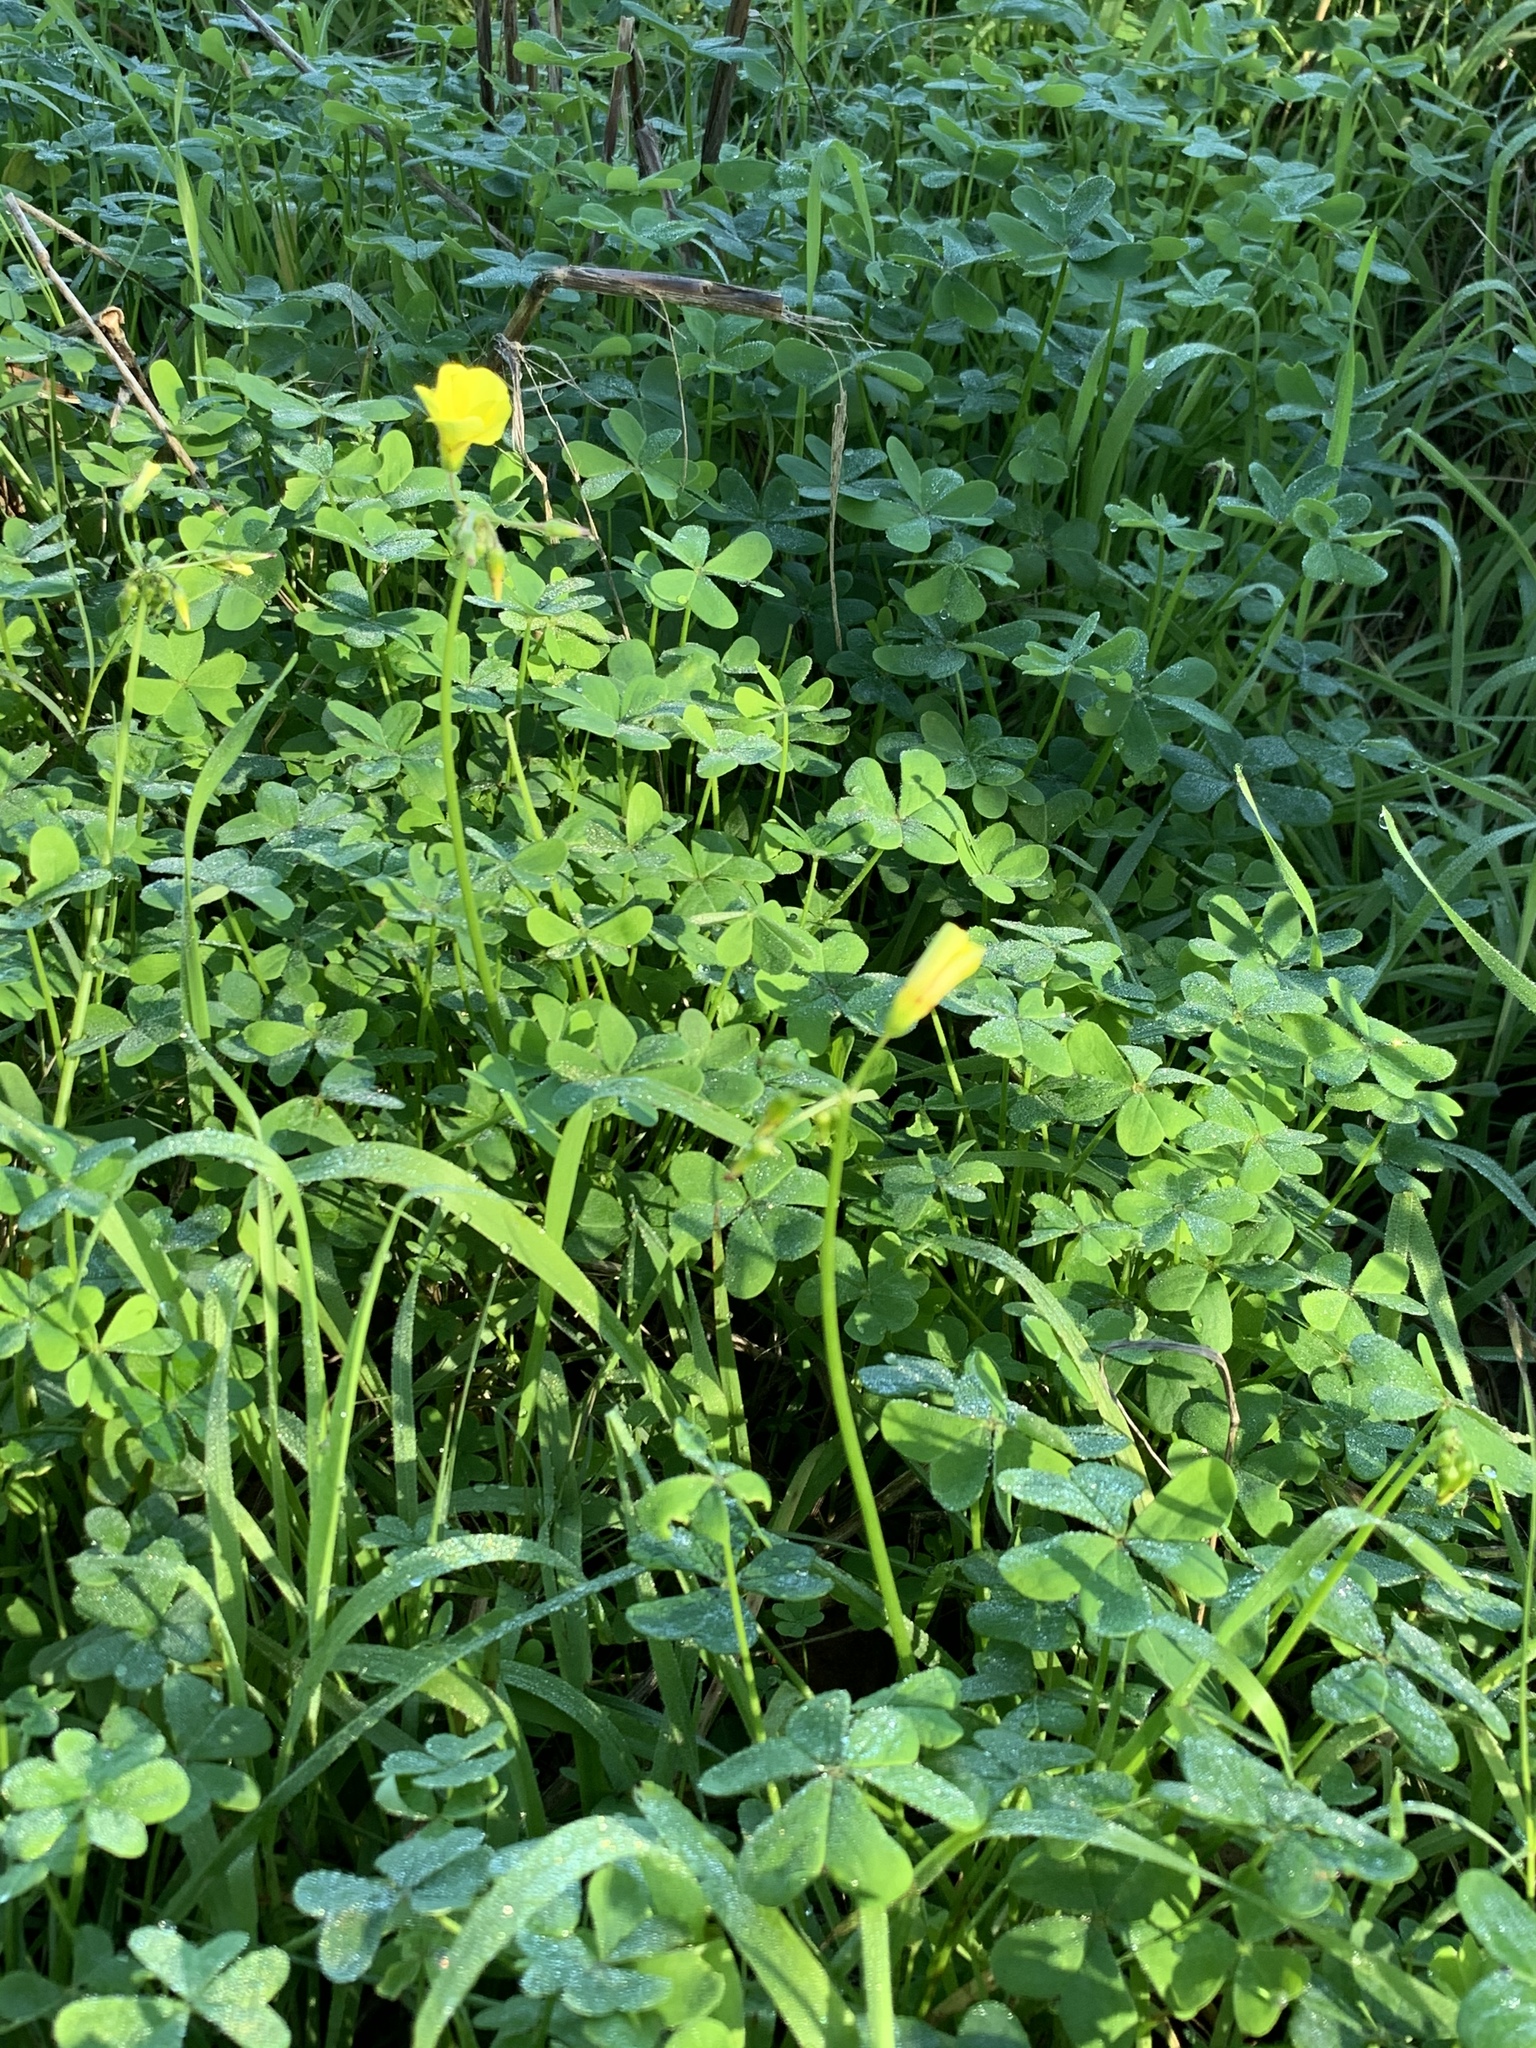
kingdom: Plantae
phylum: Tracheophyta
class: Magnoliopsida
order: Oxalidales
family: Oxalidaceae
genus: Oxalis
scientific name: Oxalis pes-caprae
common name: Bermuda-buttercup
